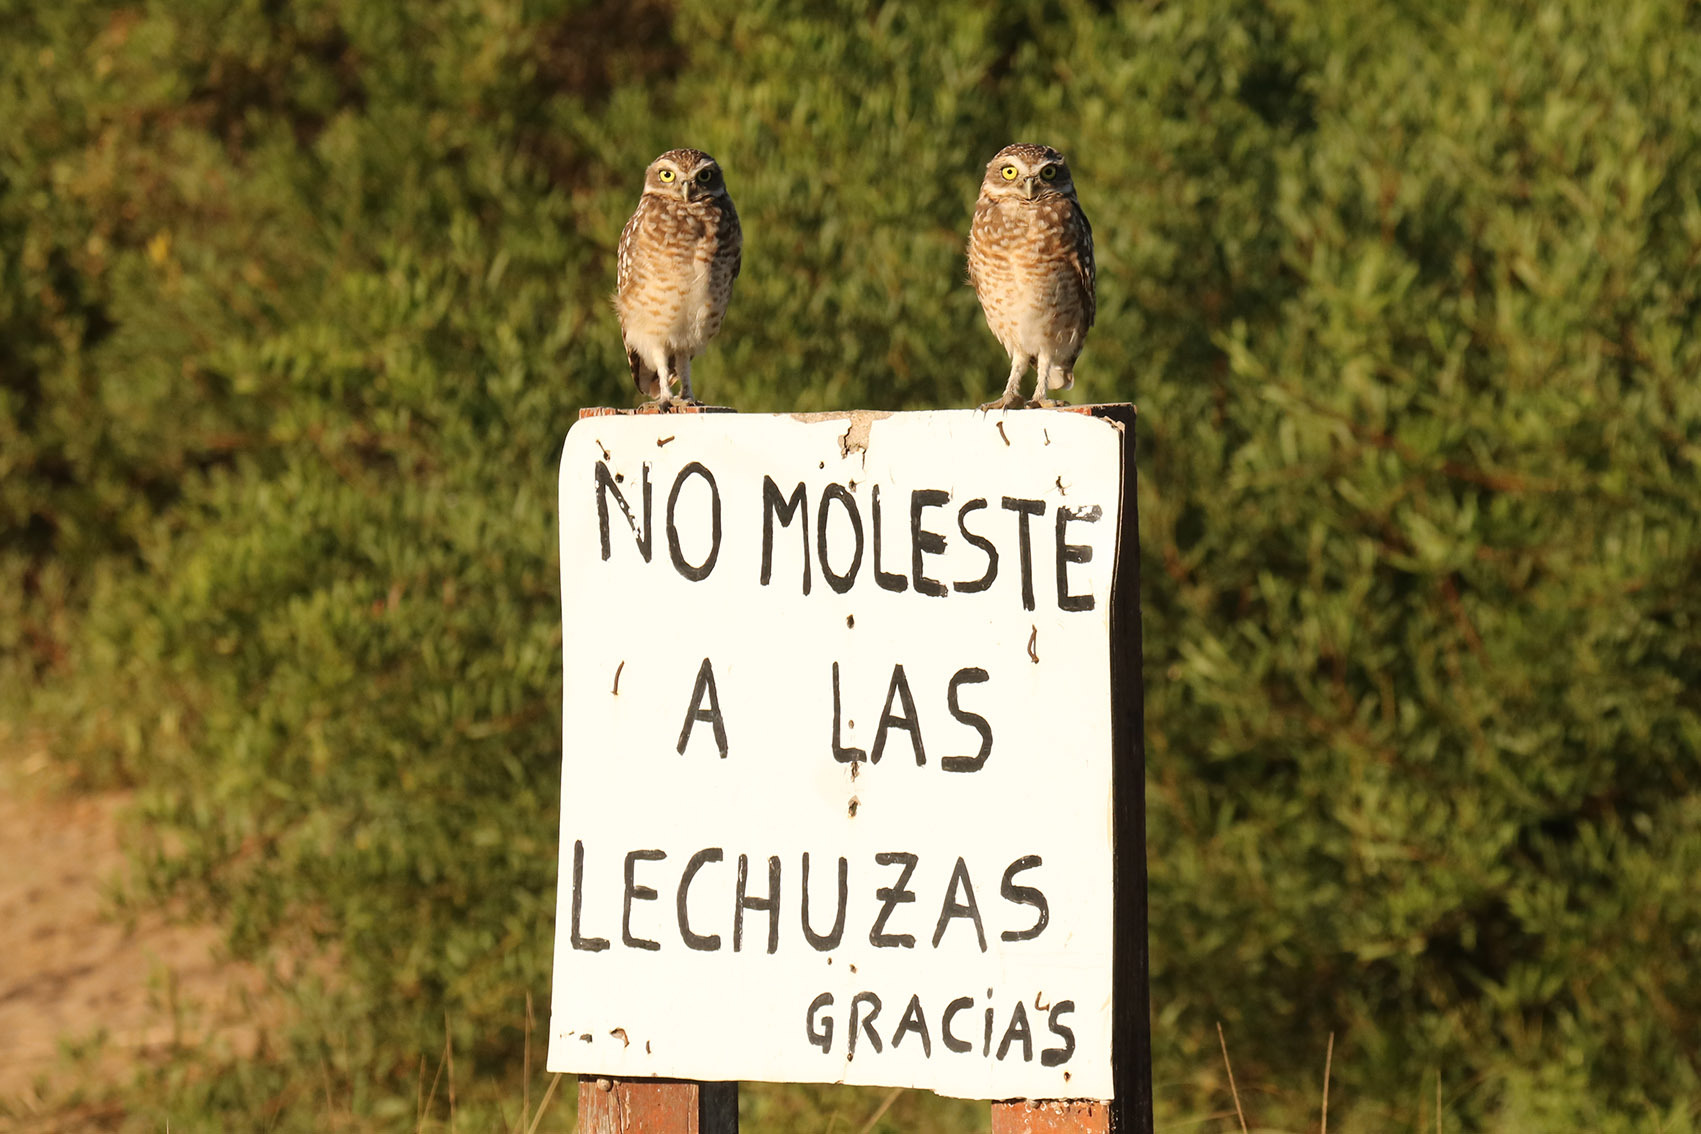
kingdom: Animalia
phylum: Chordata
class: Aves
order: Strigiformes
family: Strigidae
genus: Athene
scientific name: Athene cunicularia
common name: Burrowing owl
